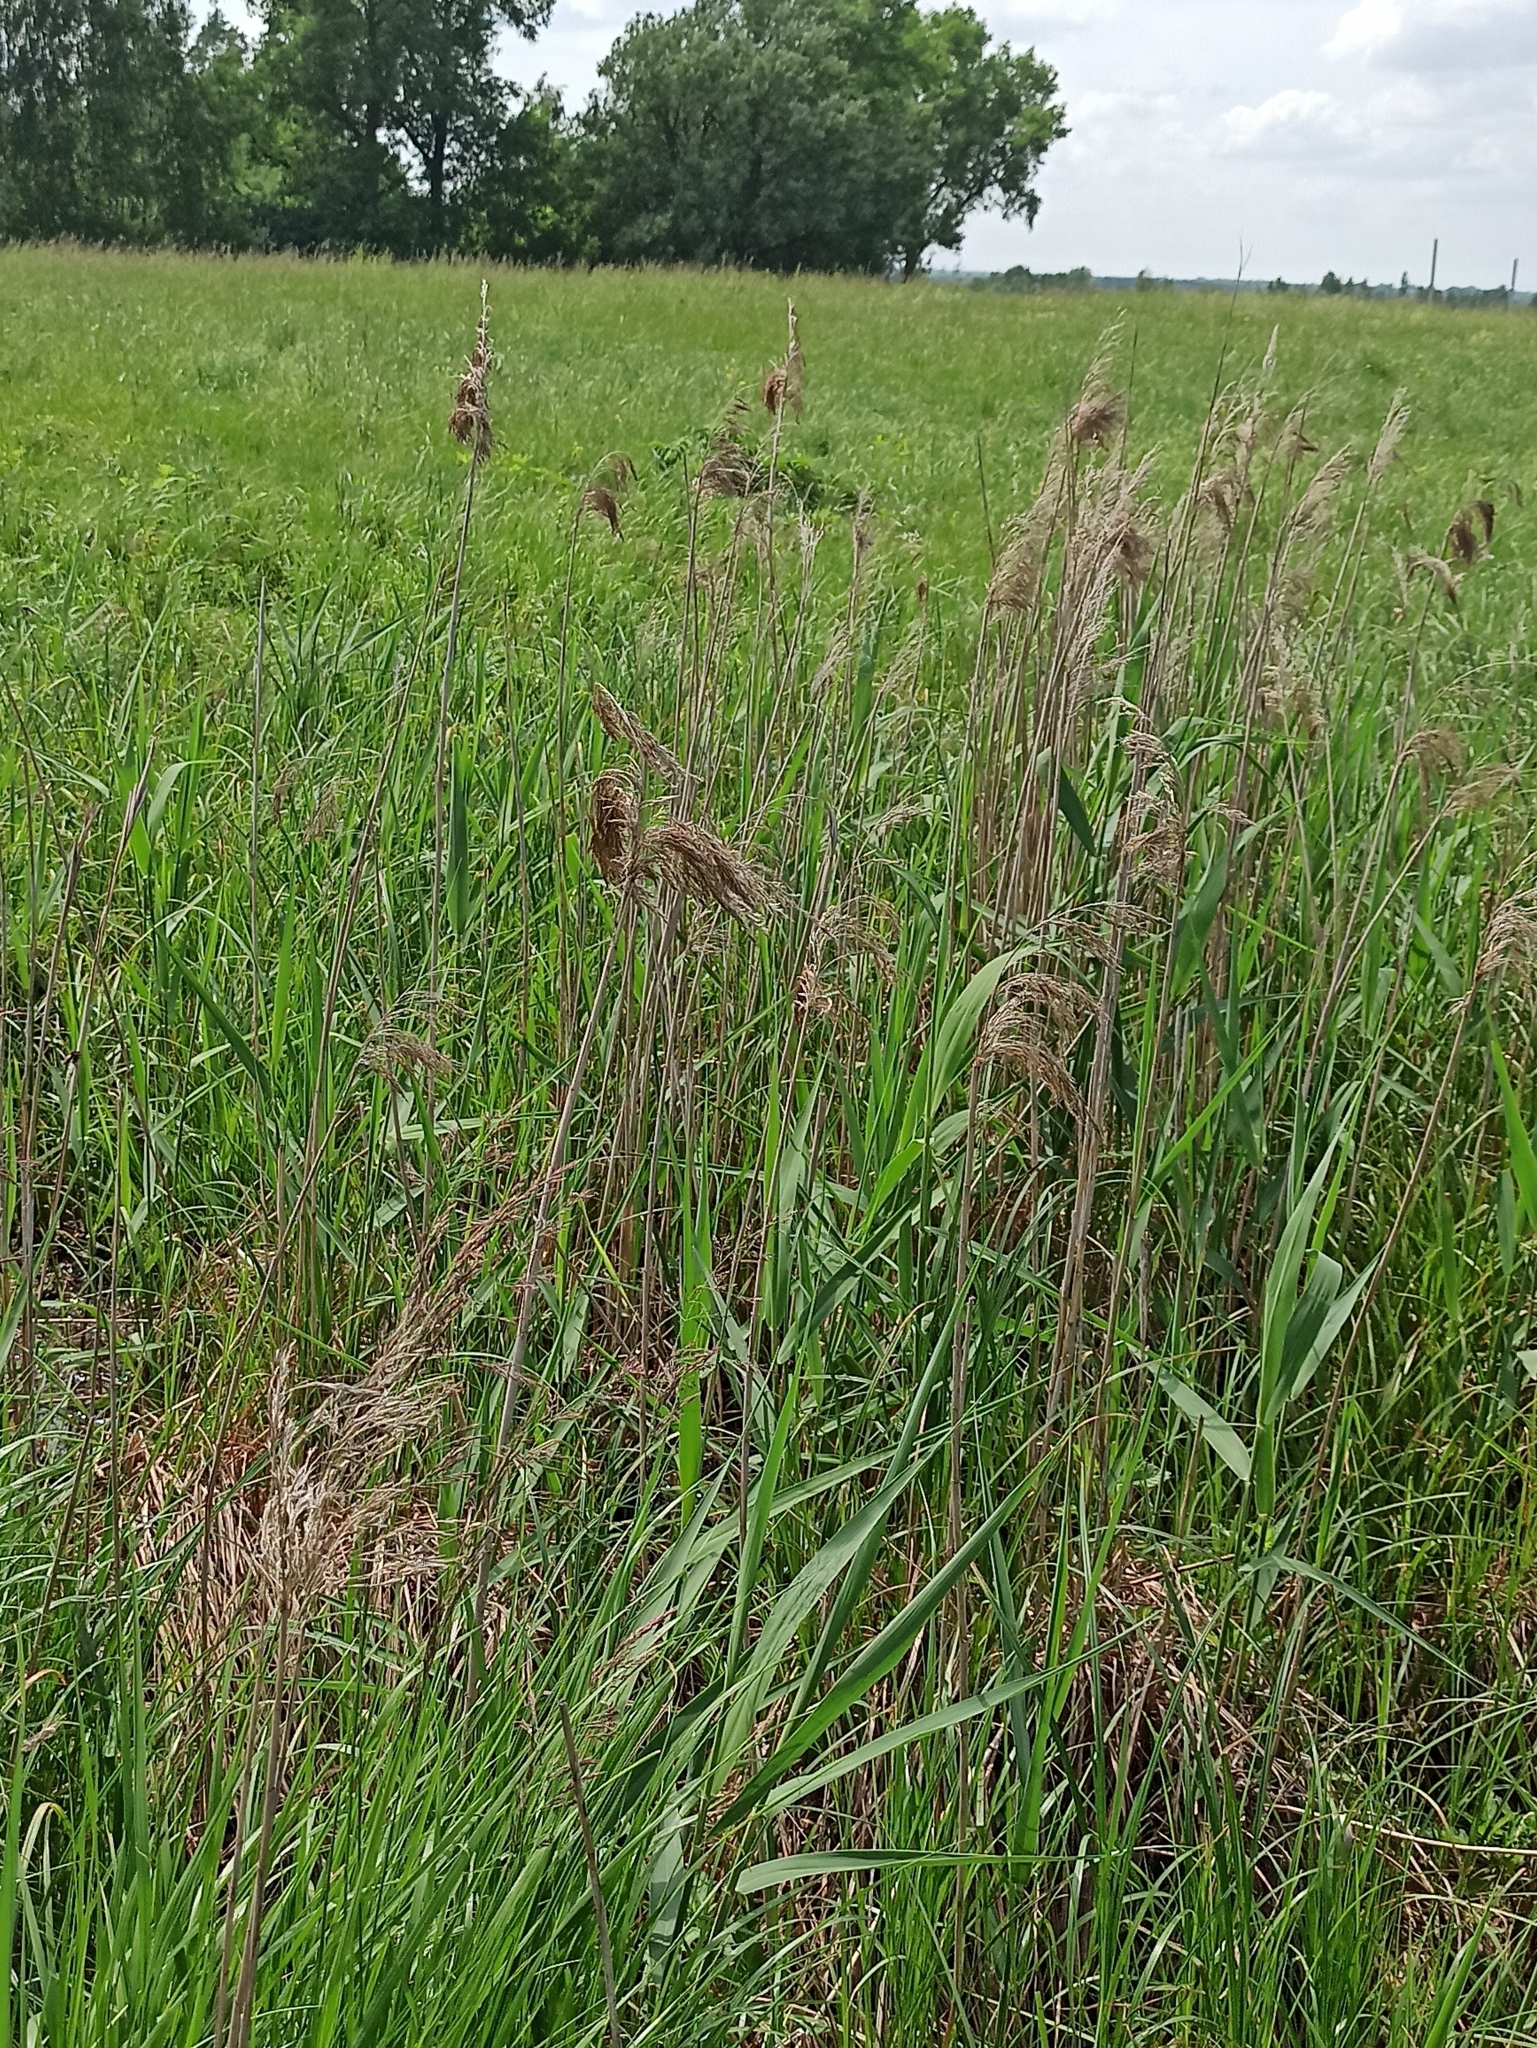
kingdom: Plantae
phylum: Tracheophyta
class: Liliopsida
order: Poales
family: Poaceae
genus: Phragmites
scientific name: Phragmites australis
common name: Common reed
